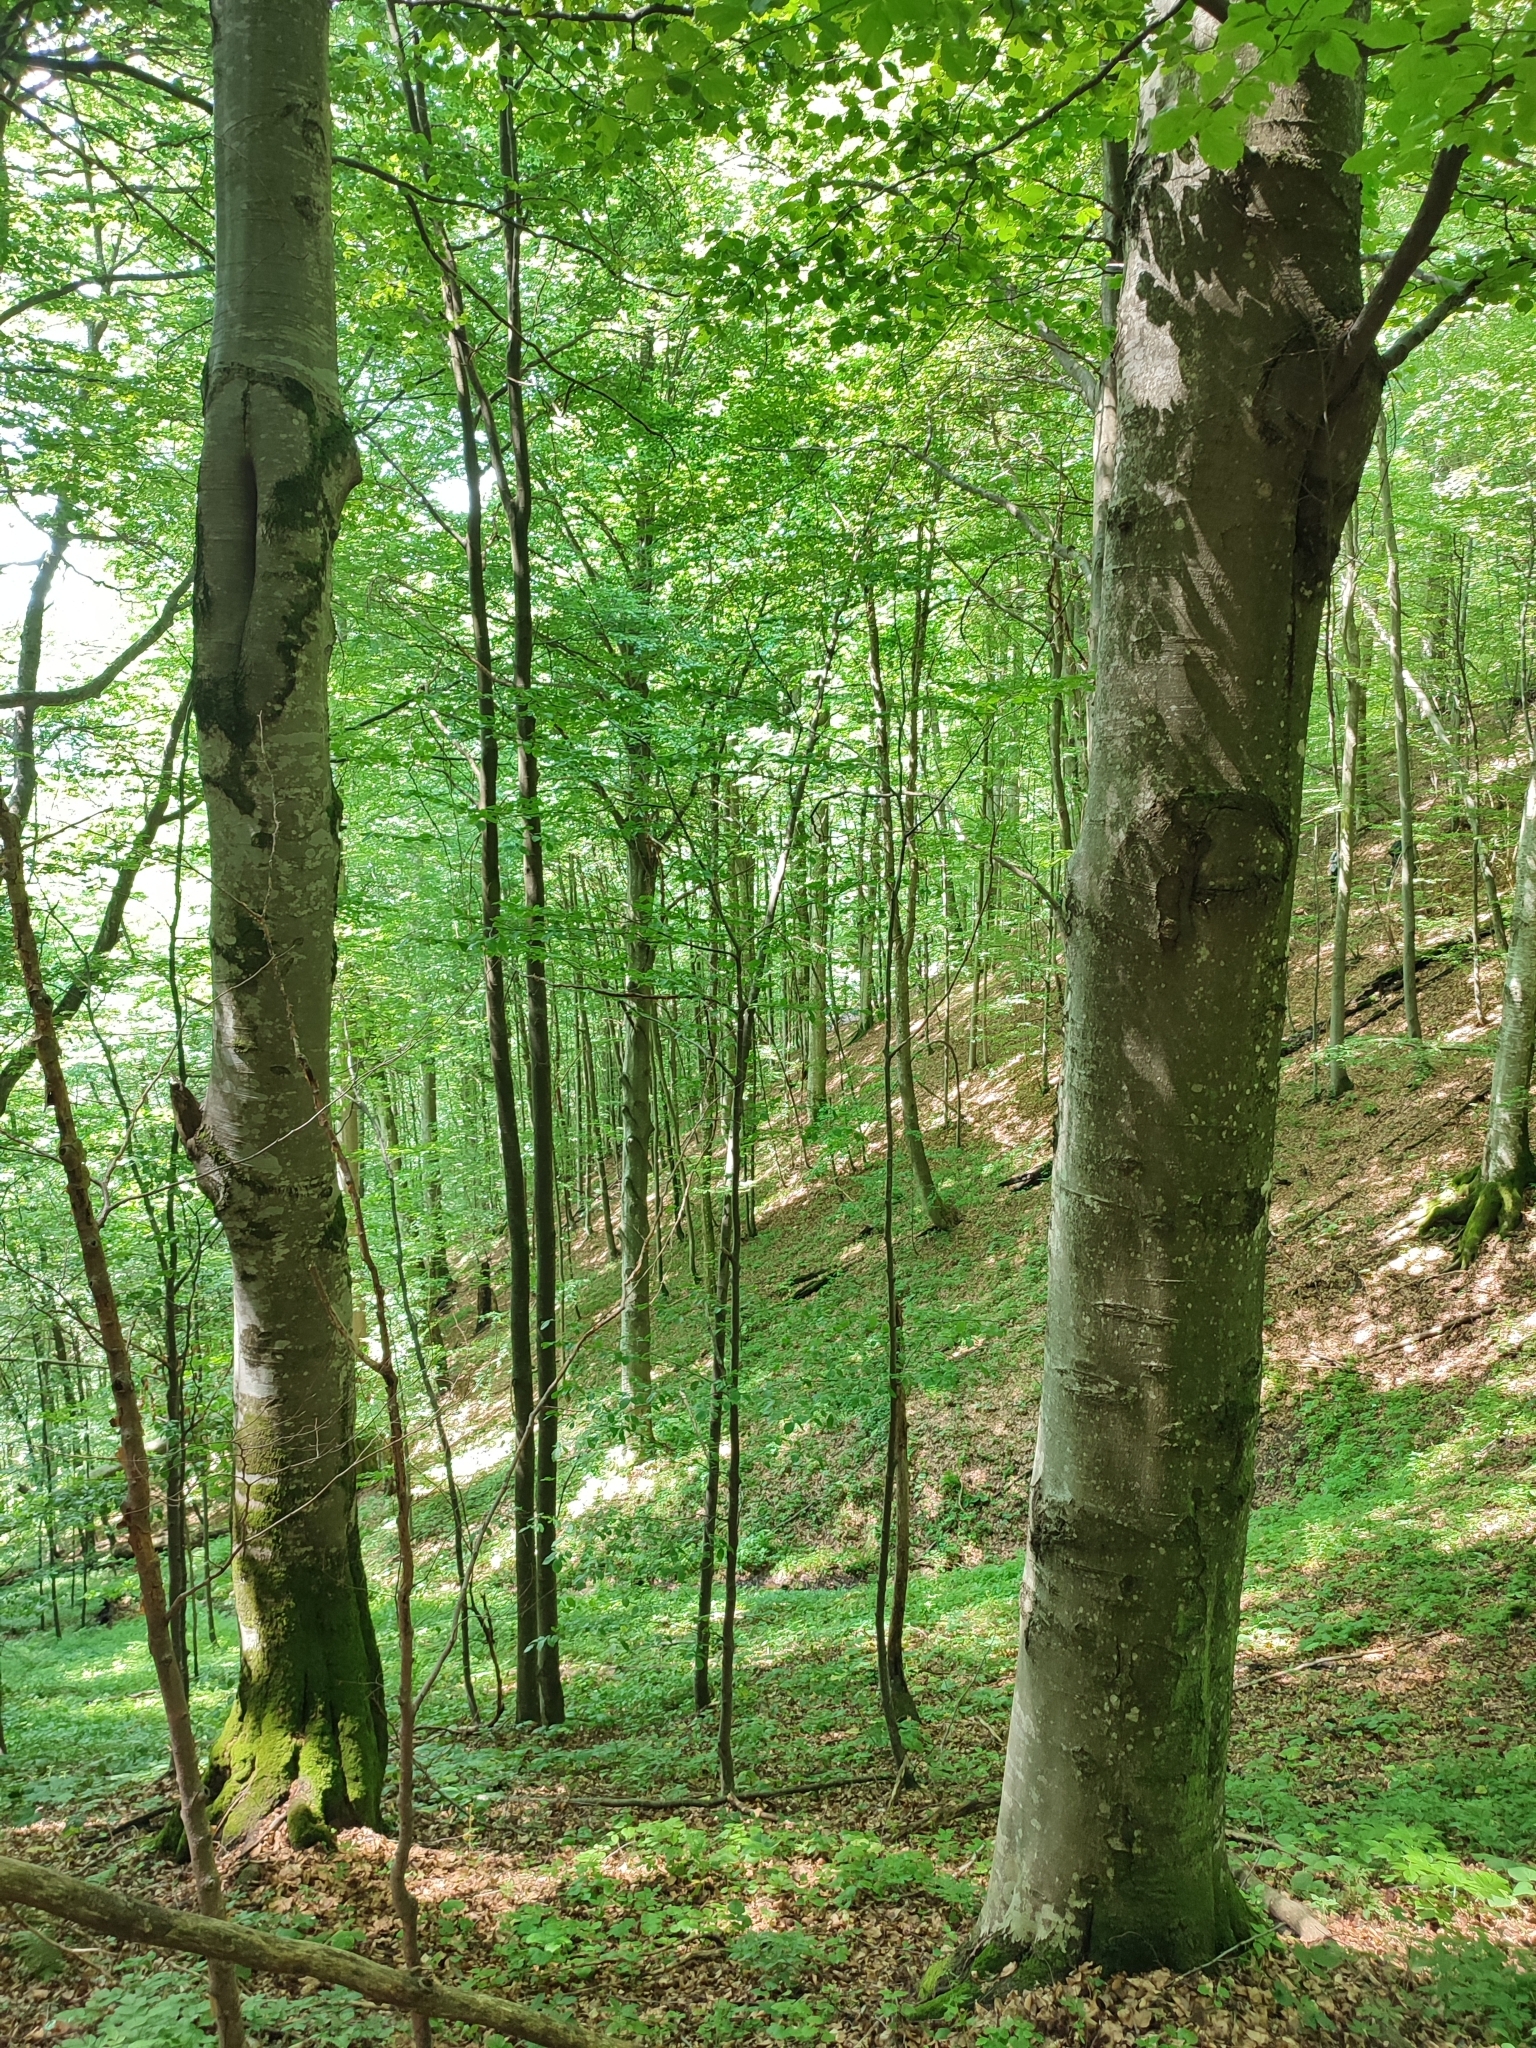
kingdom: Plantae
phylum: Tracheophyta
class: Magnoliopsida
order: Fagales
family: Fagaceae
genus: Fagus
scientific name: Fagus sylvatica
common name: Beech
